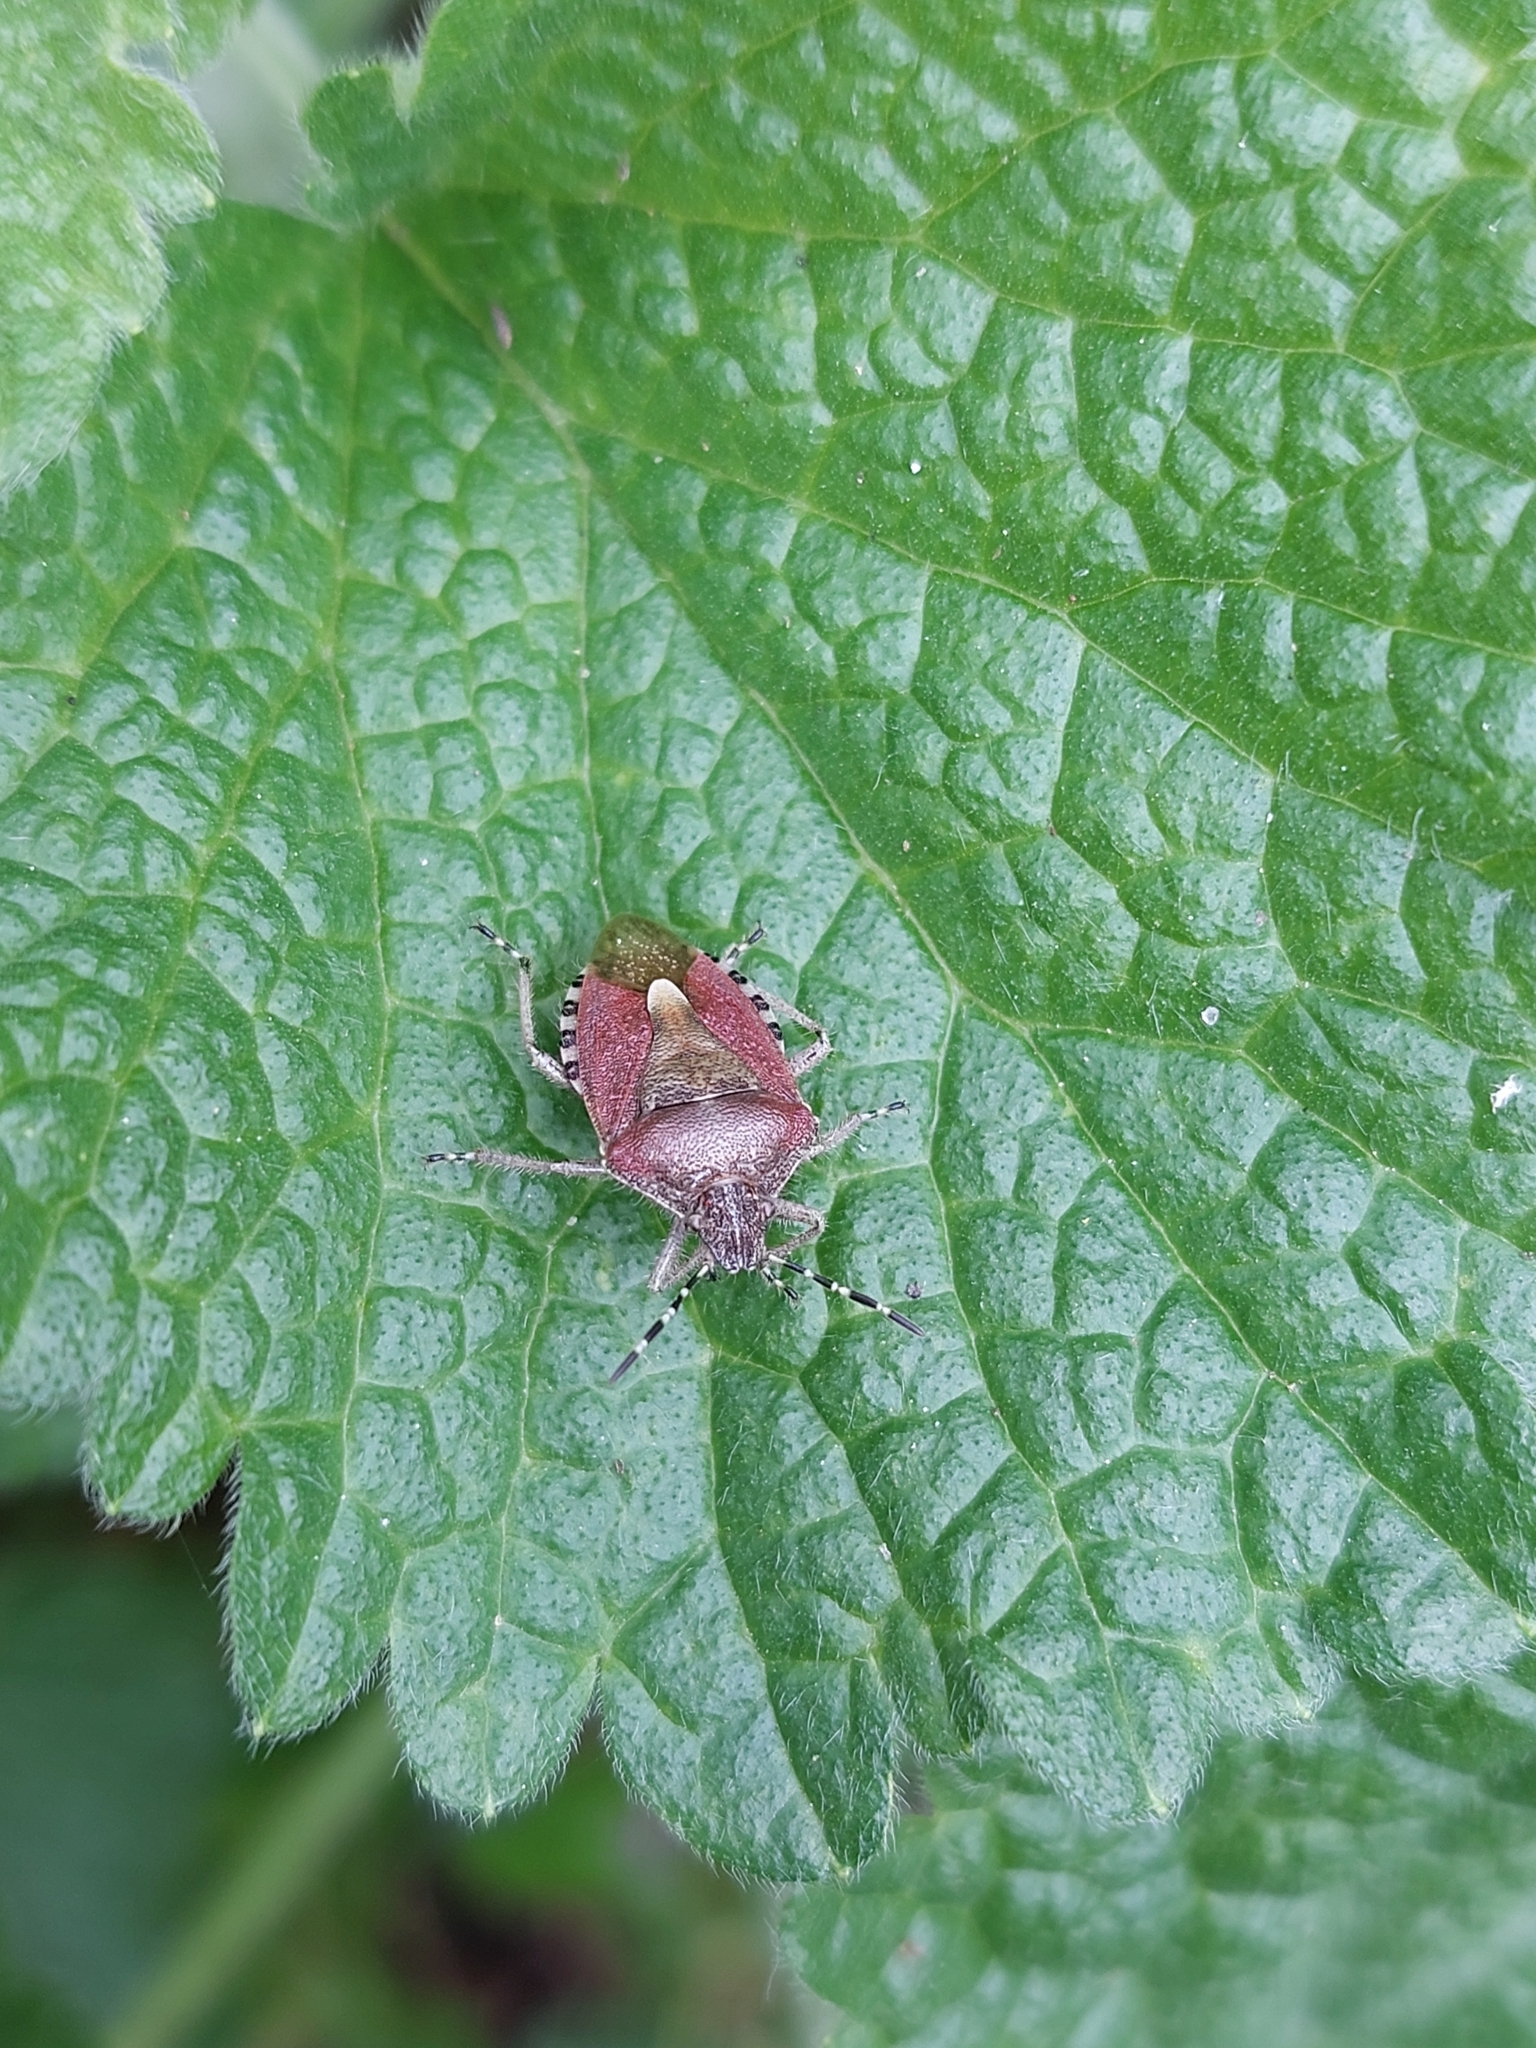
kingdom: Animalia
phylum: Arthropoda
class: Insecta
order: Hemiptera
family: Pentatomidae
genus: Dolycoris
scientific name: Dolycoris baccarum
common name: Sloe bug
